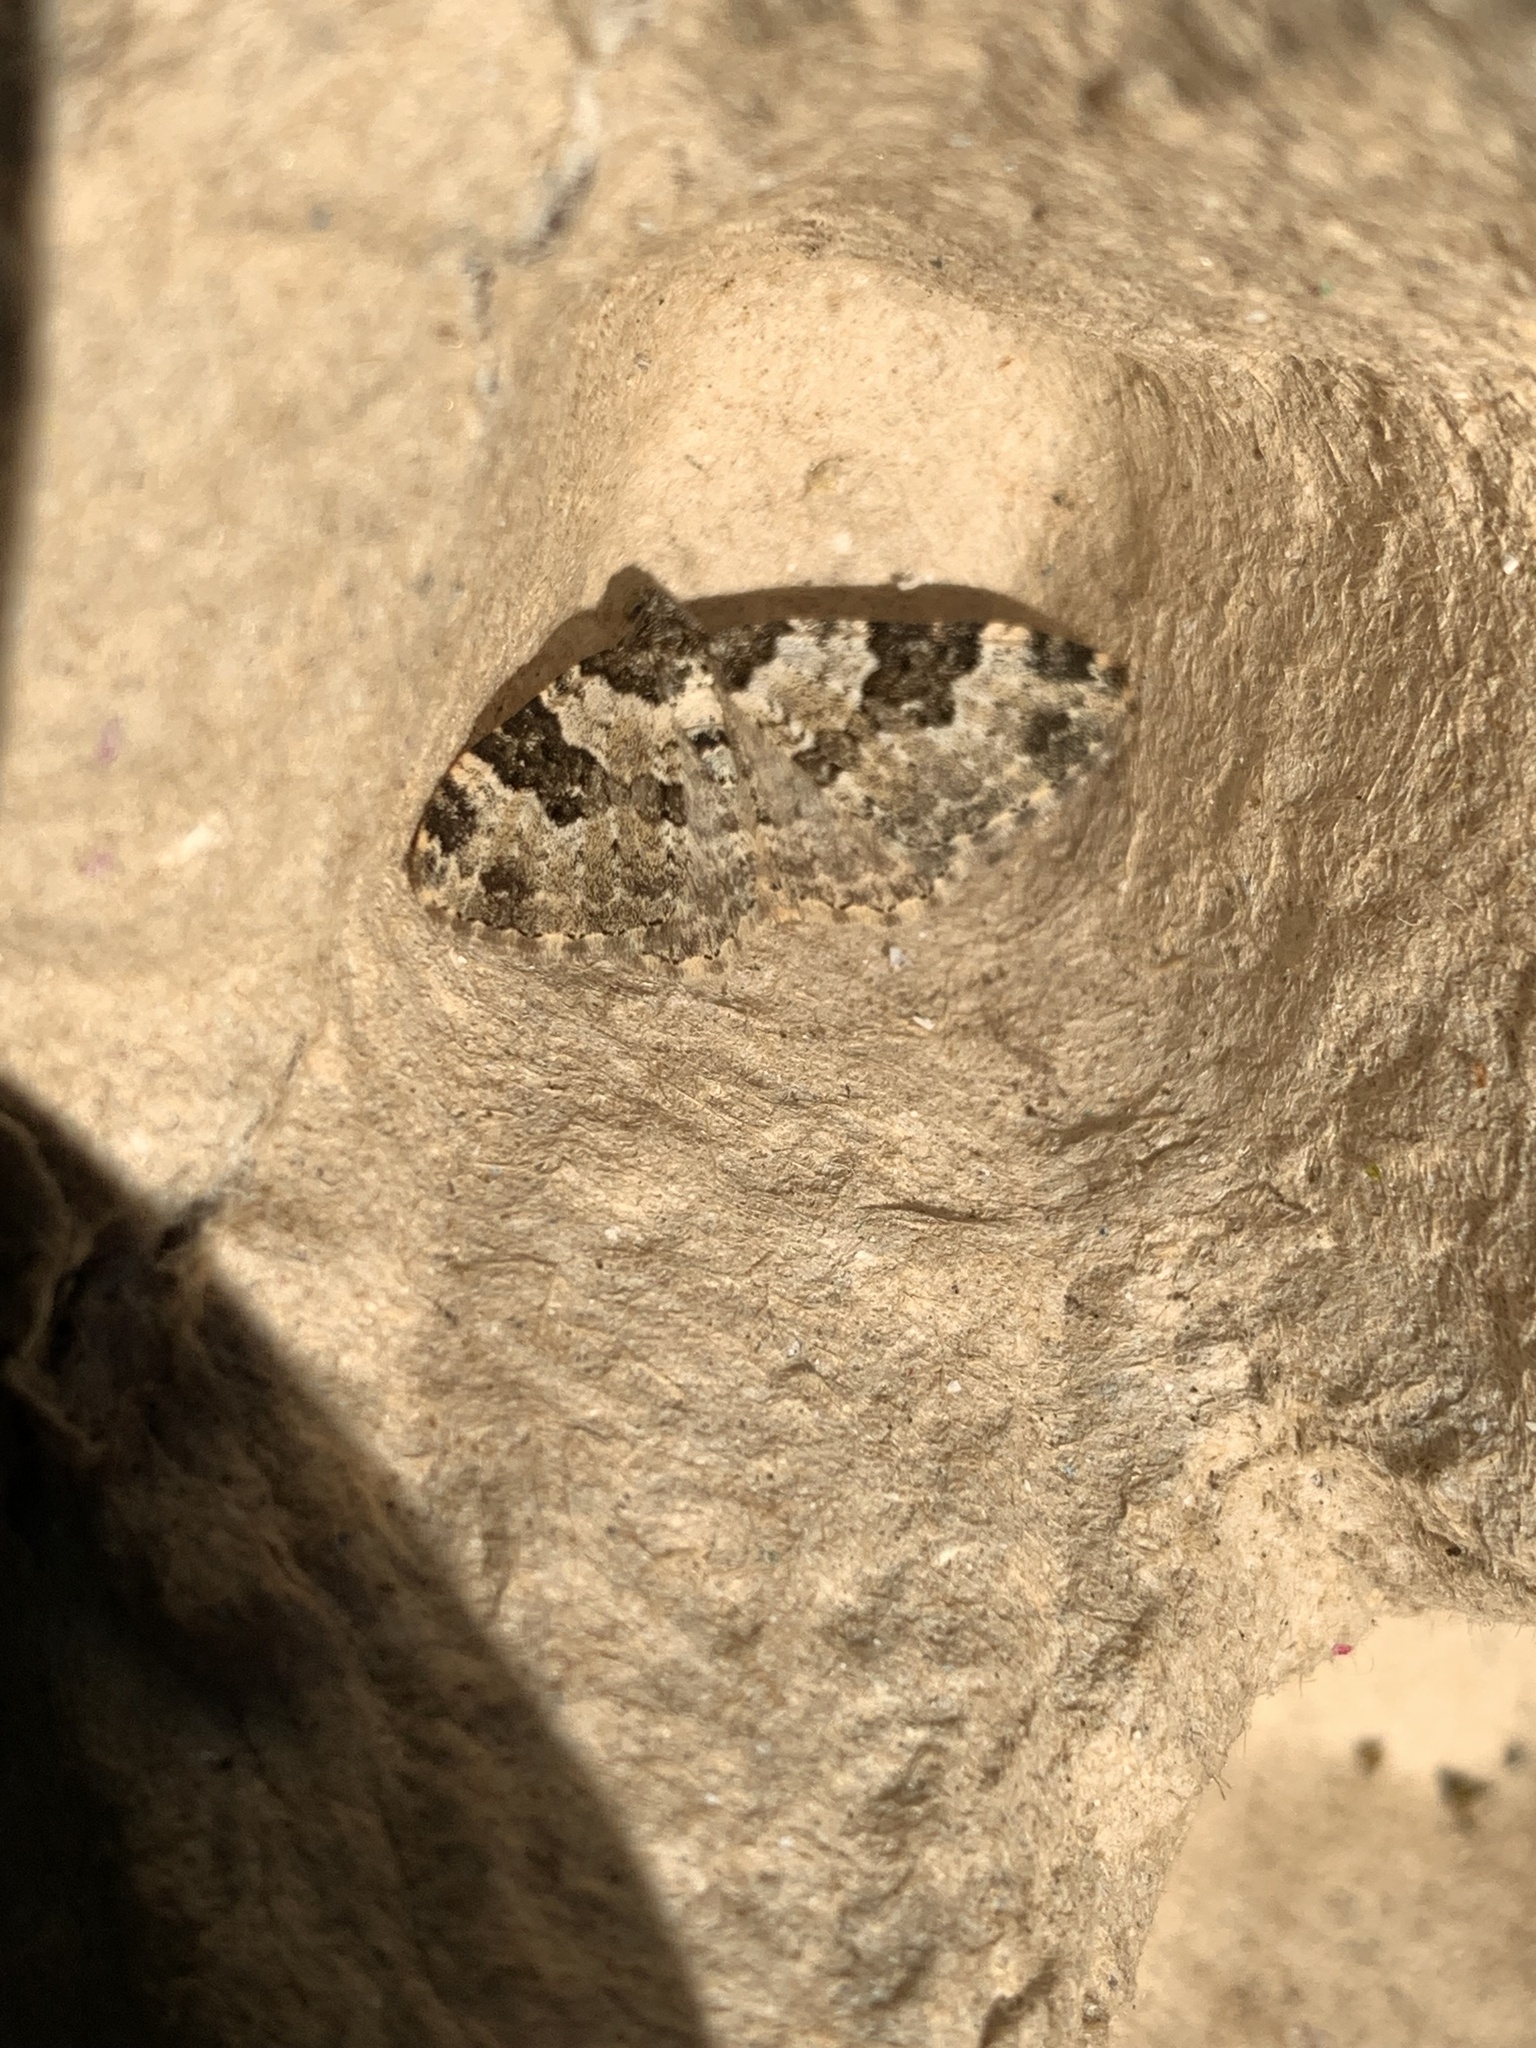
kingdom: Animalia
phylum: Arthropoda
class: Insecta
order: Lepidoptera
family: Geometridae
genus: Xanthorhoe
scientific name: Xanthorhoe fluctuata
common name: Garden carpet
